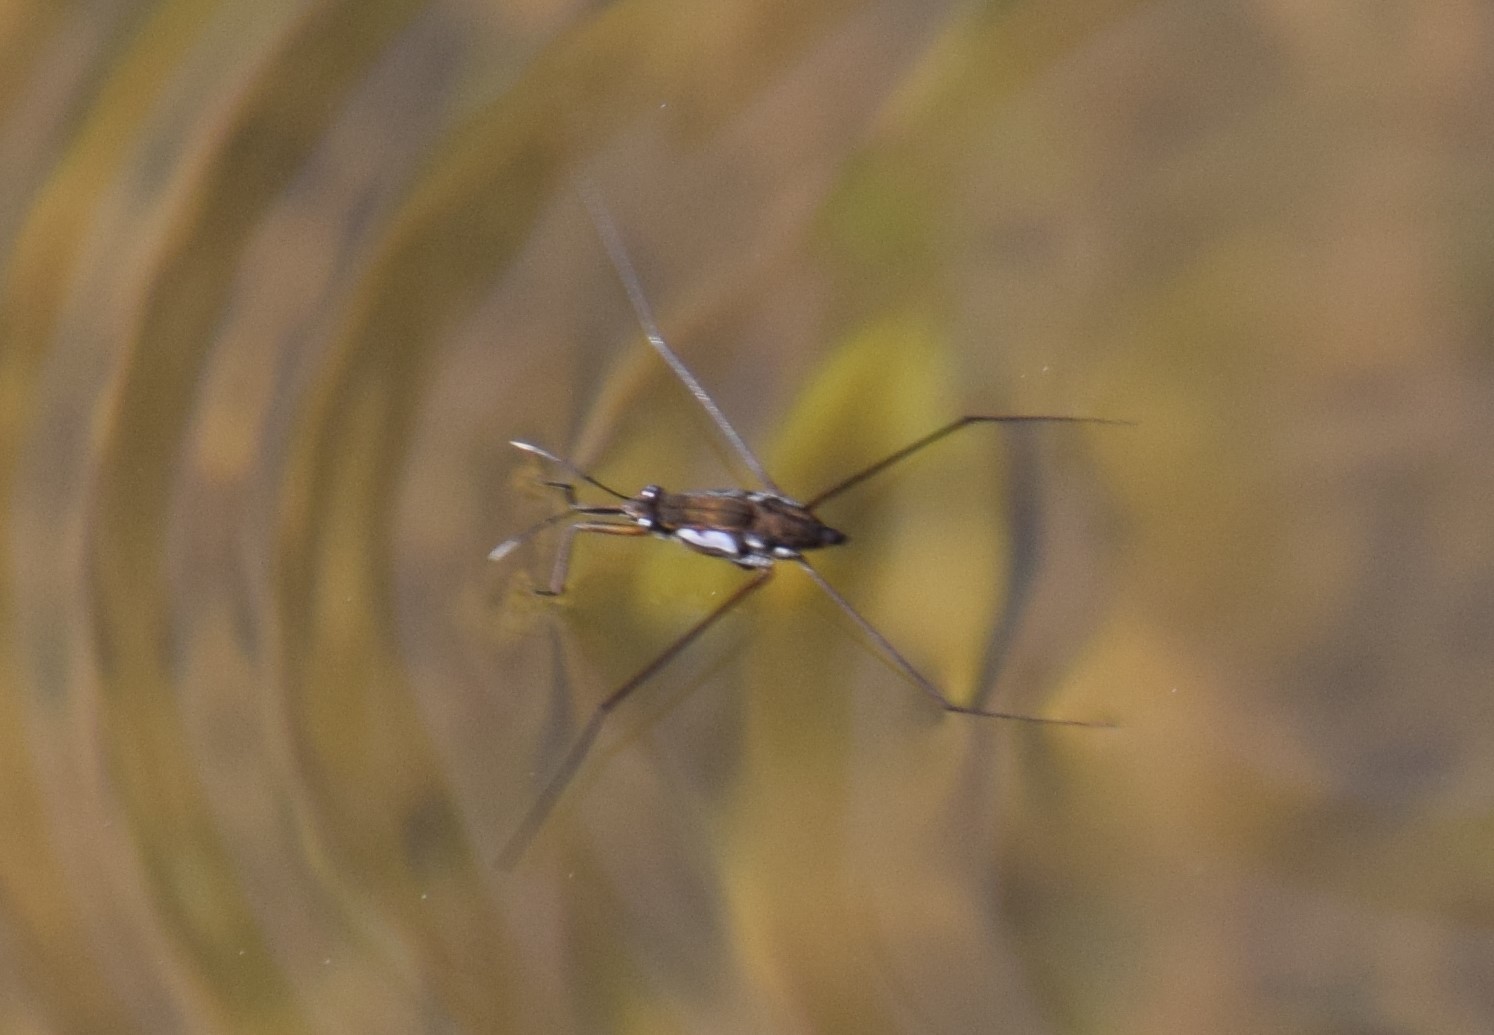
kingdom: Animalia
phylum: Arthropoda
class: Insecta
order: Hemiptera
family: Gerridae
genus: Tenagogerris
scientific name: Tenagogerris euphrosyne
